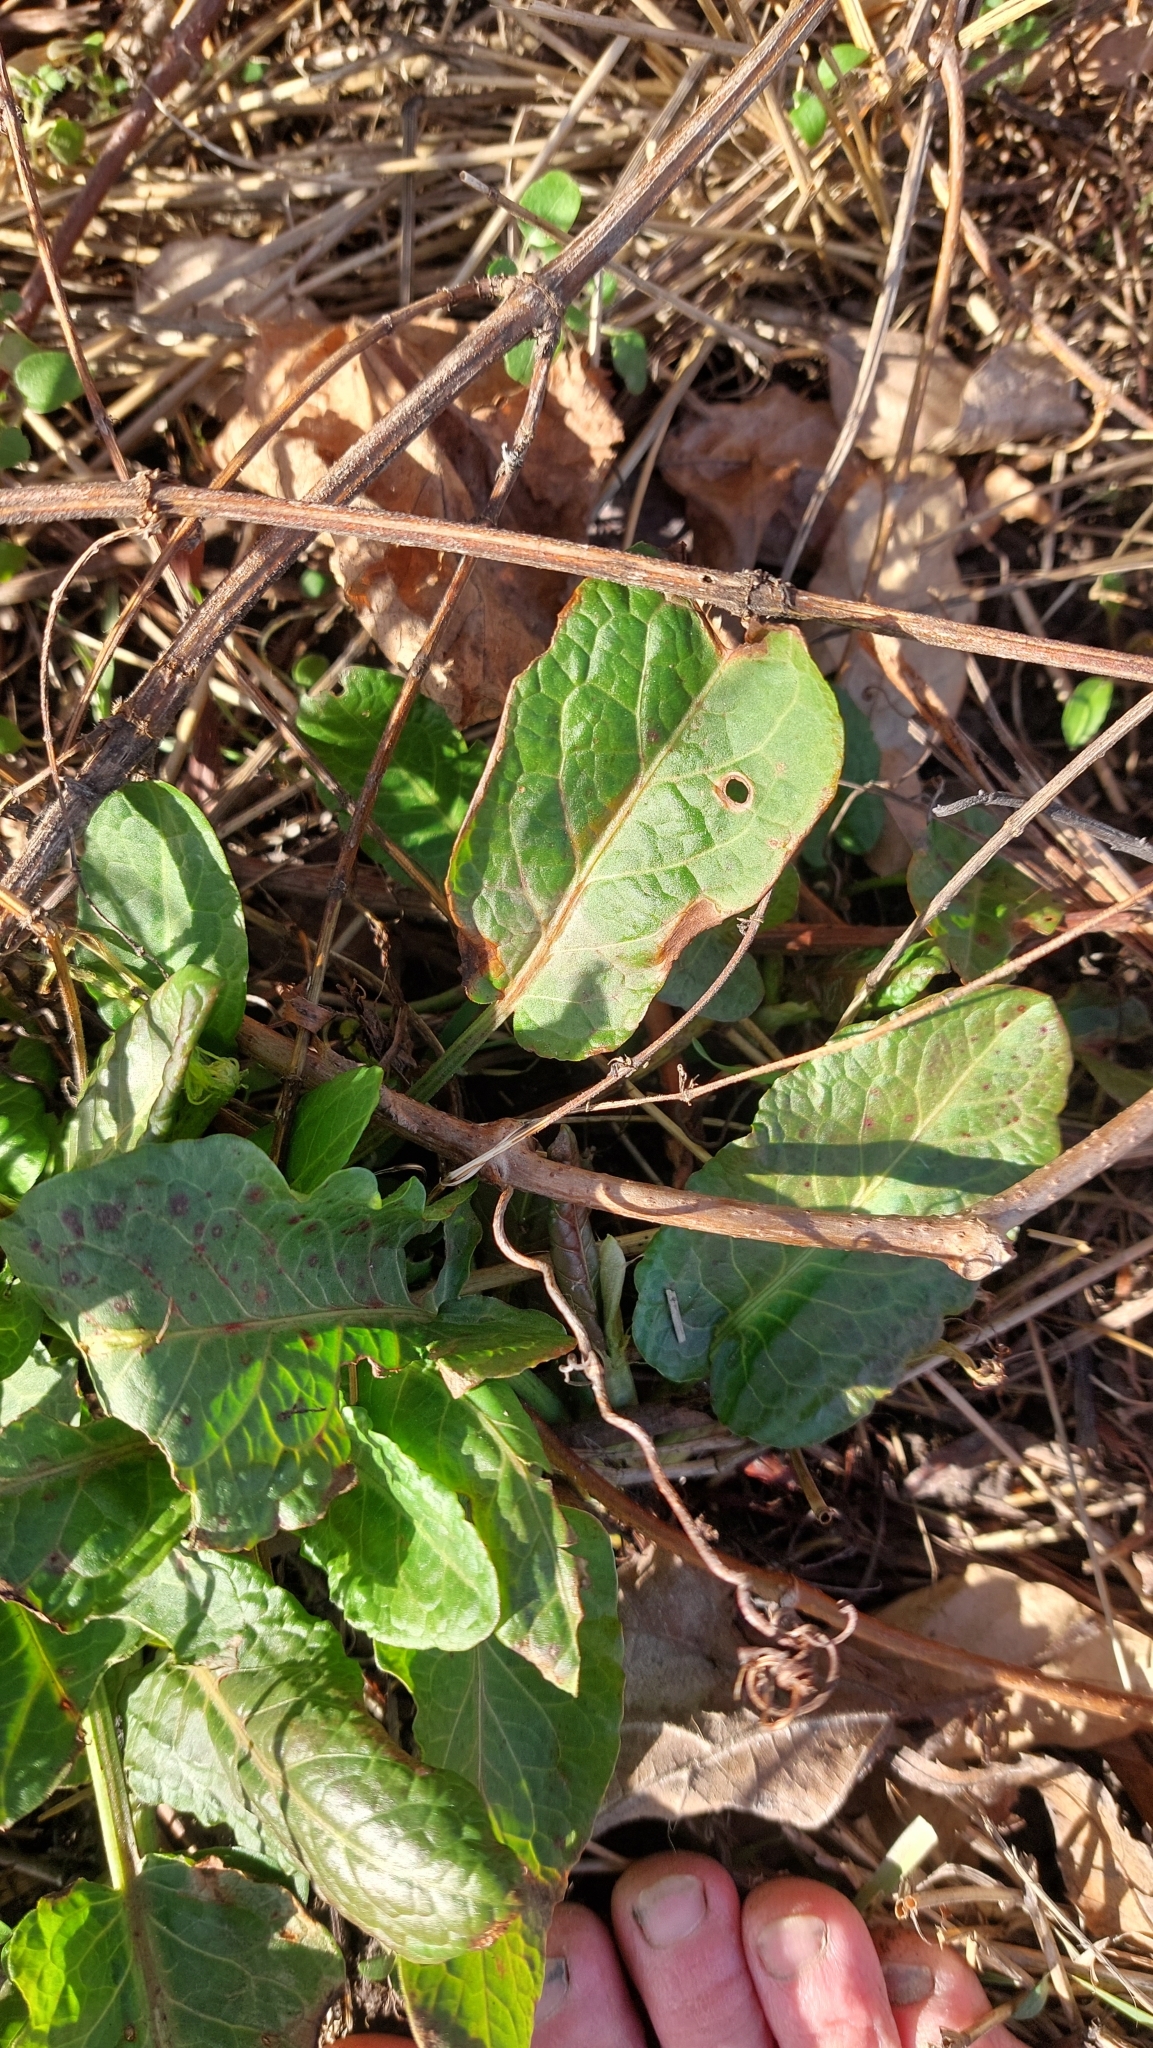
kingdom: Plantae
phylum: Tracheophyta
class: Magnoliopsida
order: Caryophyllales
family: Polygonaceae
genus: Rumex
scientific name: Rumex obtusifolius
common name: Bitter dock
